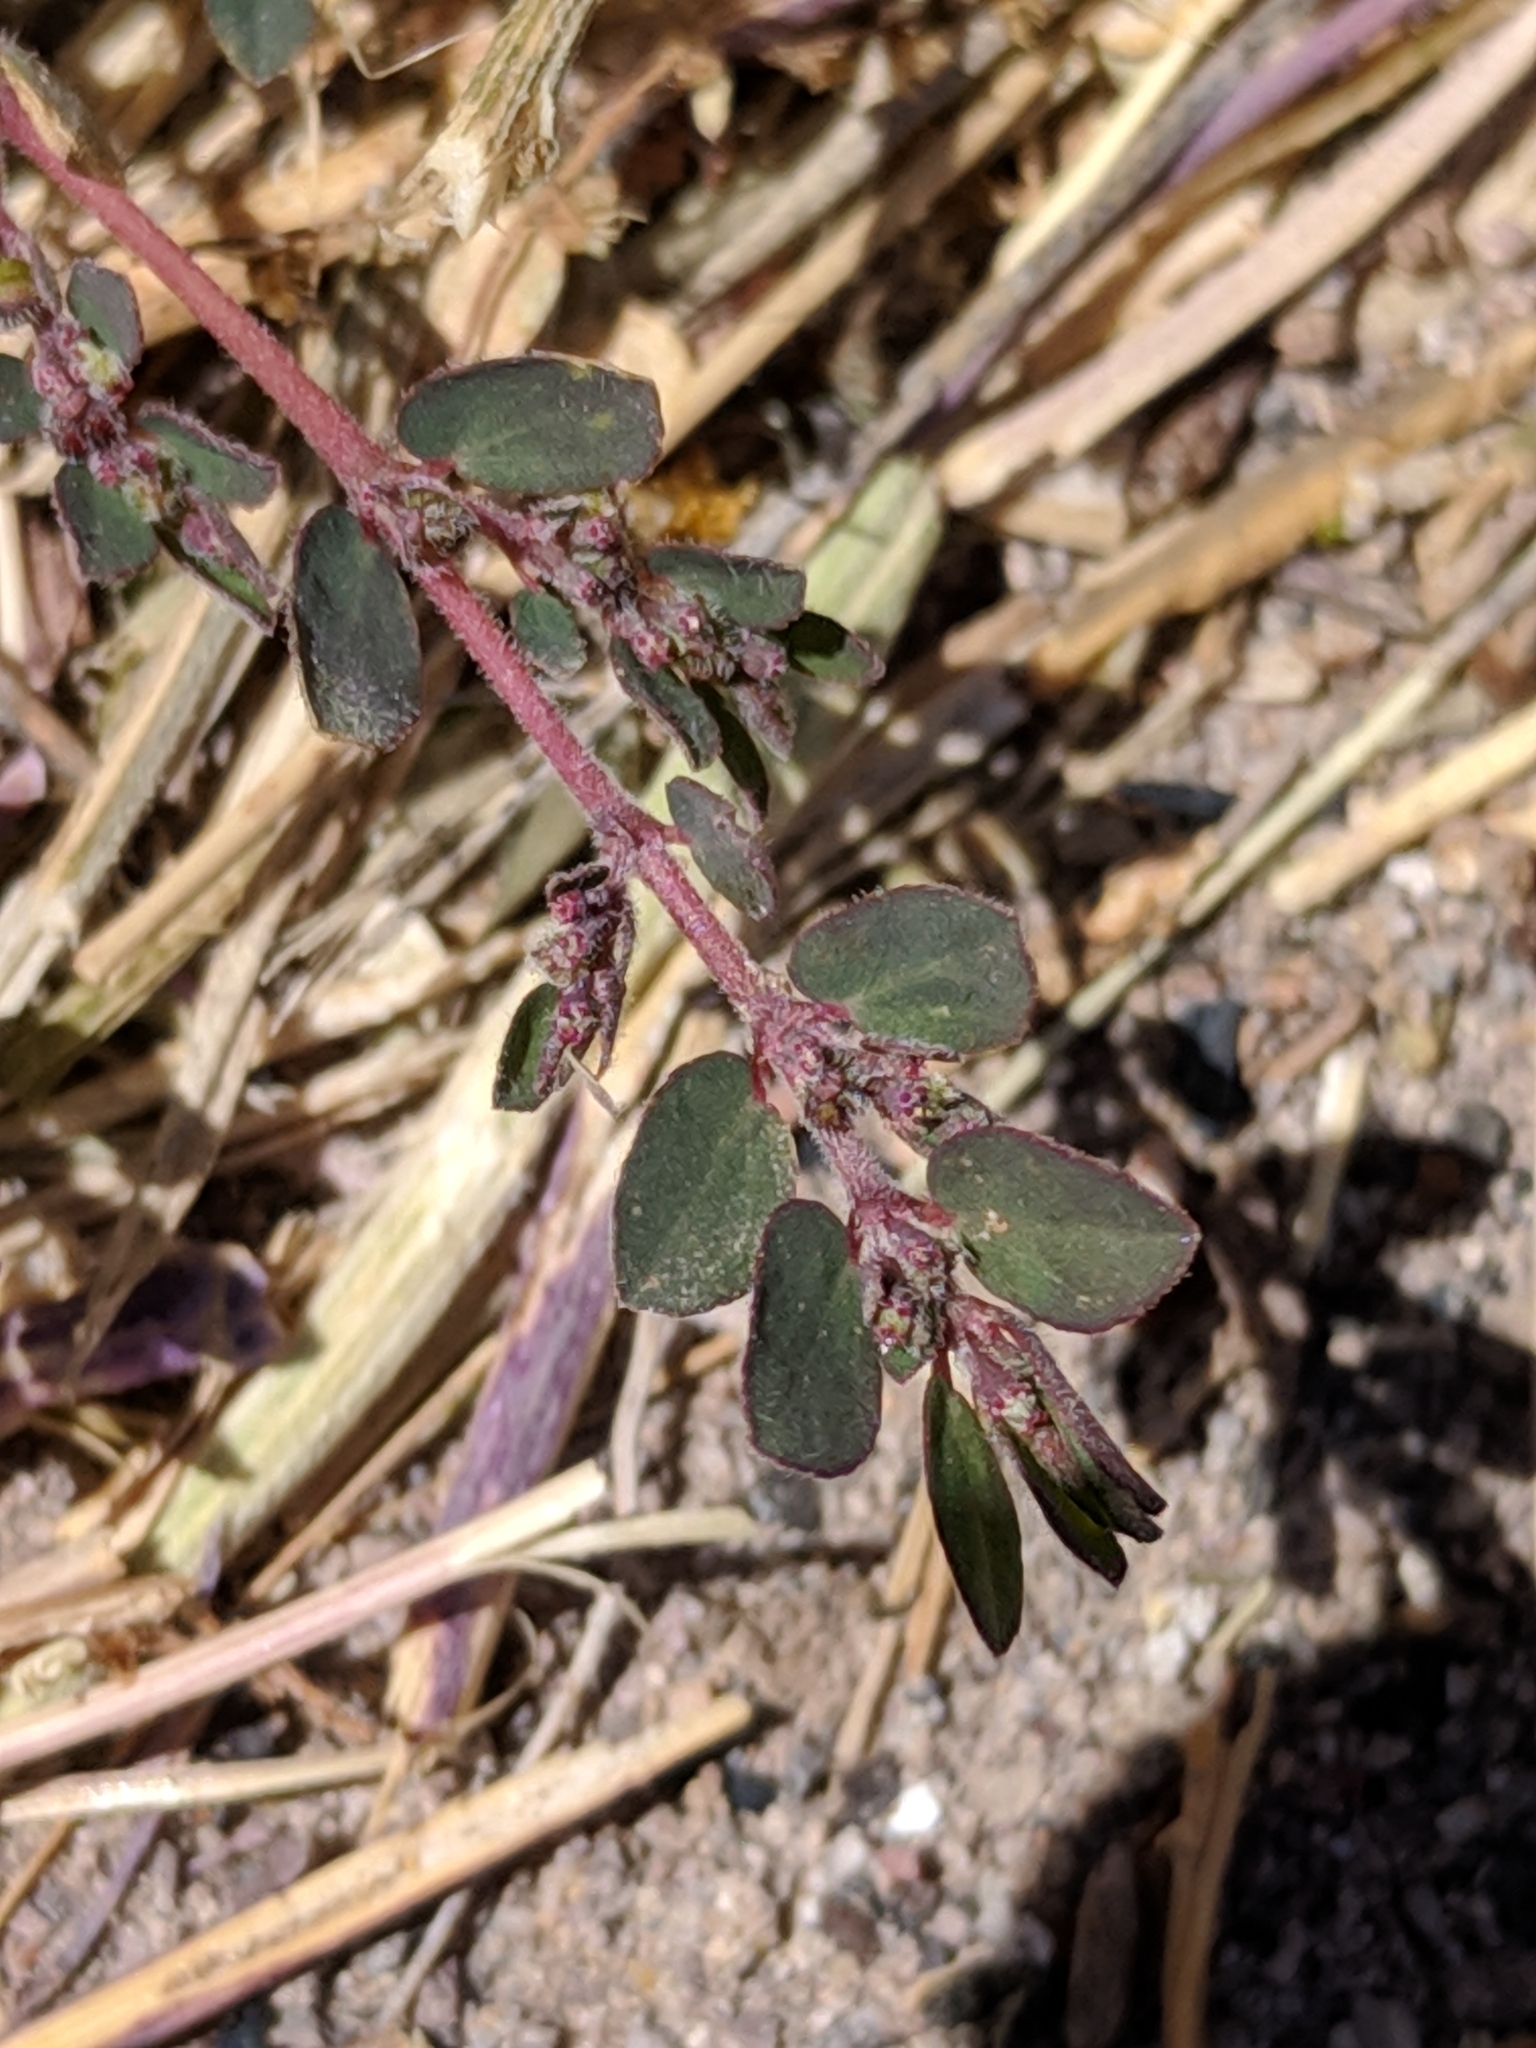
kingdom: Plantae
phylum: Tracheophyta
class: Magnoliopsida
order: Malpighiales
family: Euphorbiaceae
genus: Euphorbia
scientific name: Euphorbia prostrata
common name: Prostrate sandmat
